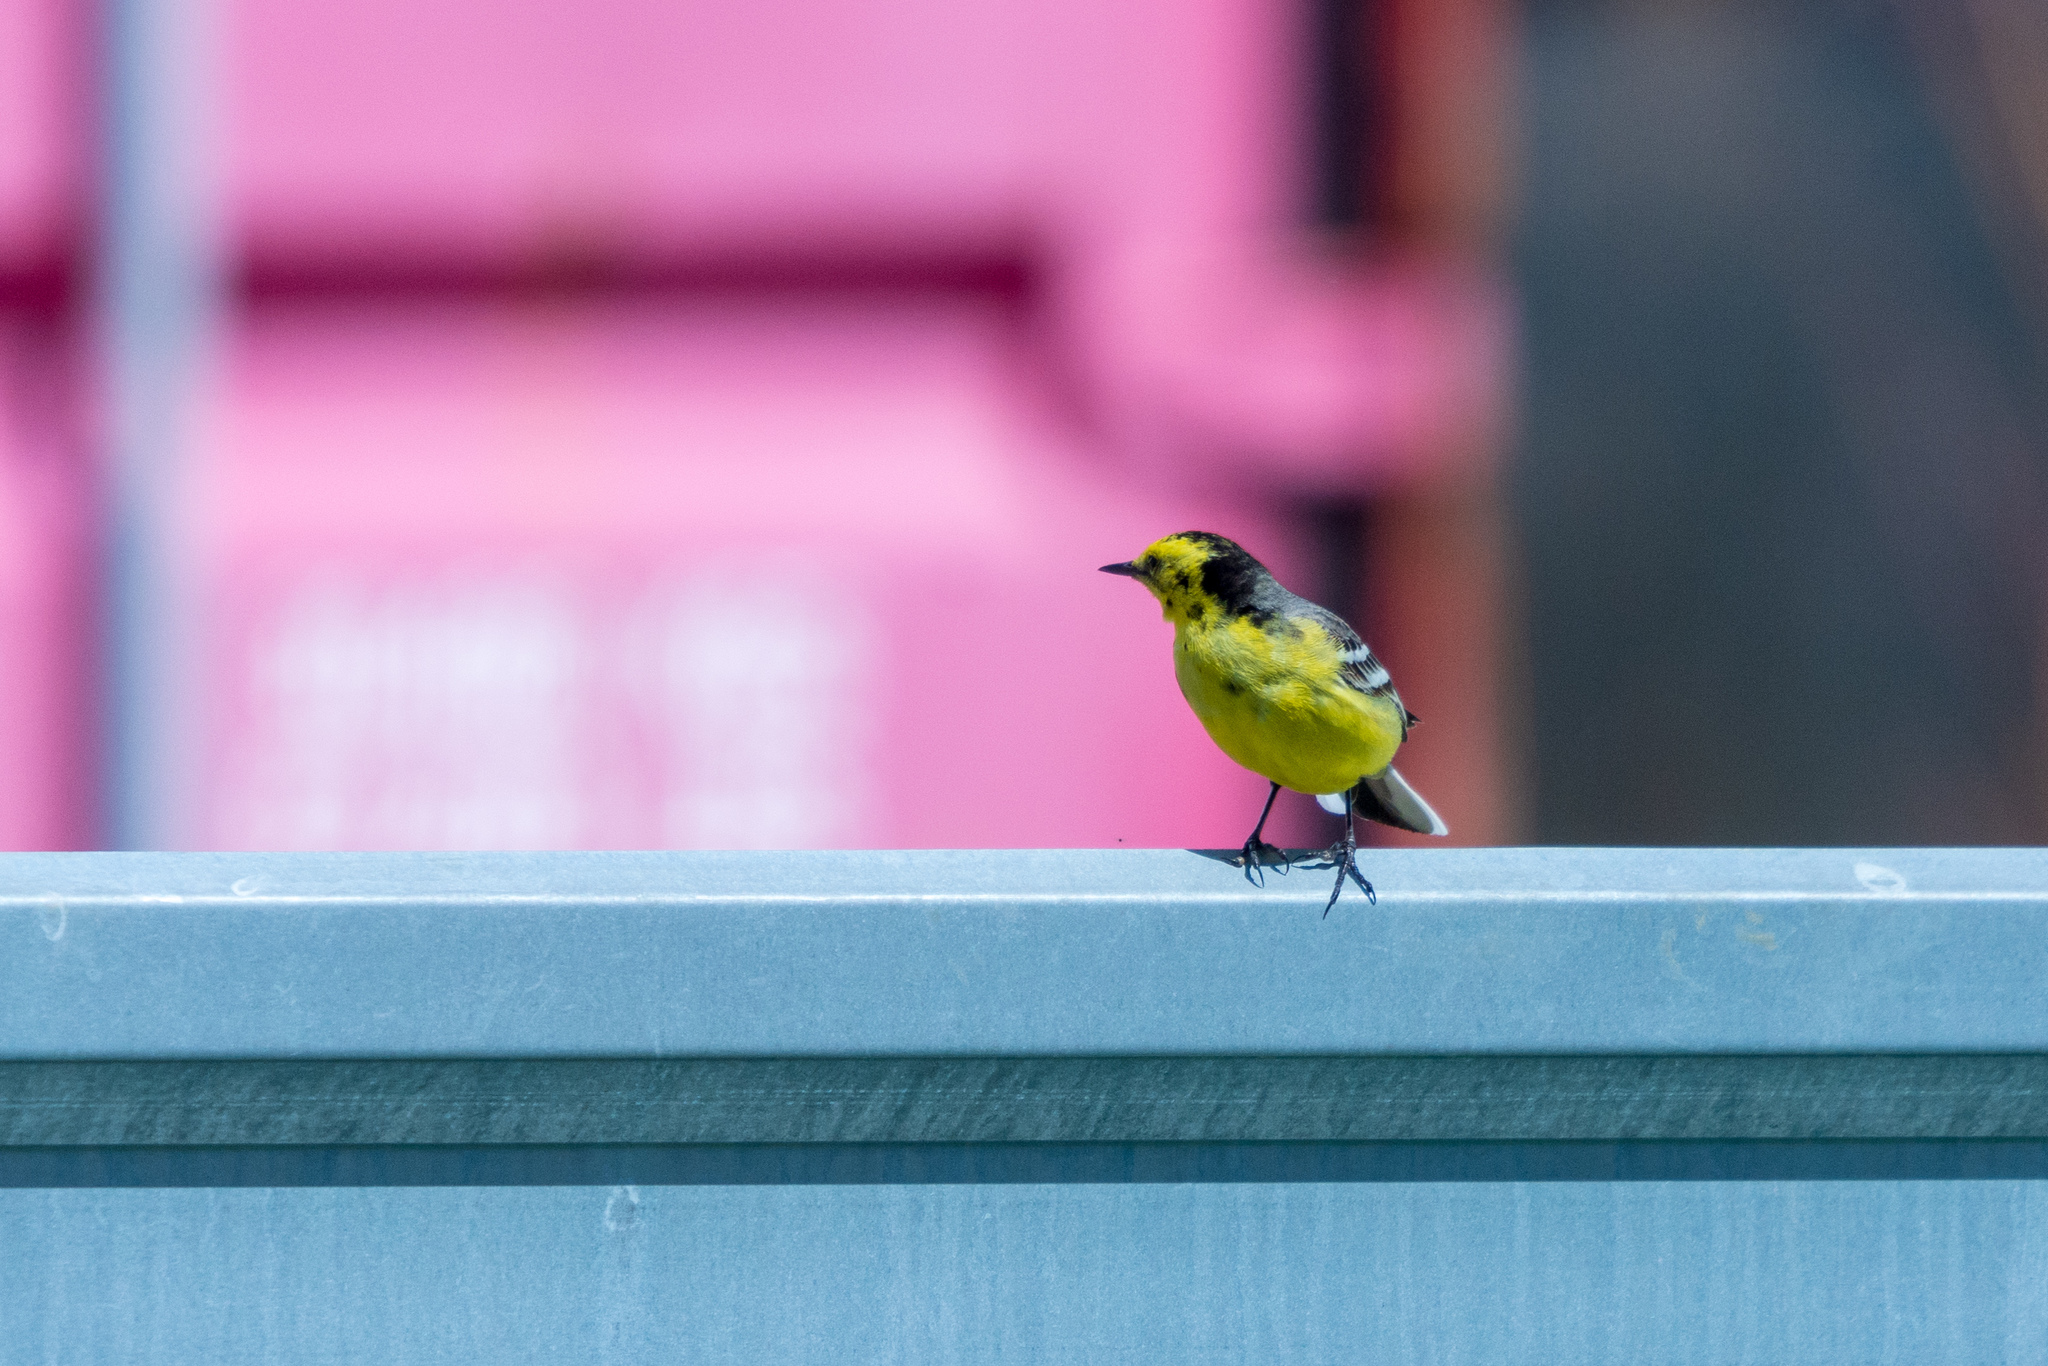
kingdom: Animalia
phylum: Chordata
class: Aves
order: Passeriformes
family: Motacillidae
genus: Motacilla
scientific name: Motacilla citreola
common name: Citrine wagtail
